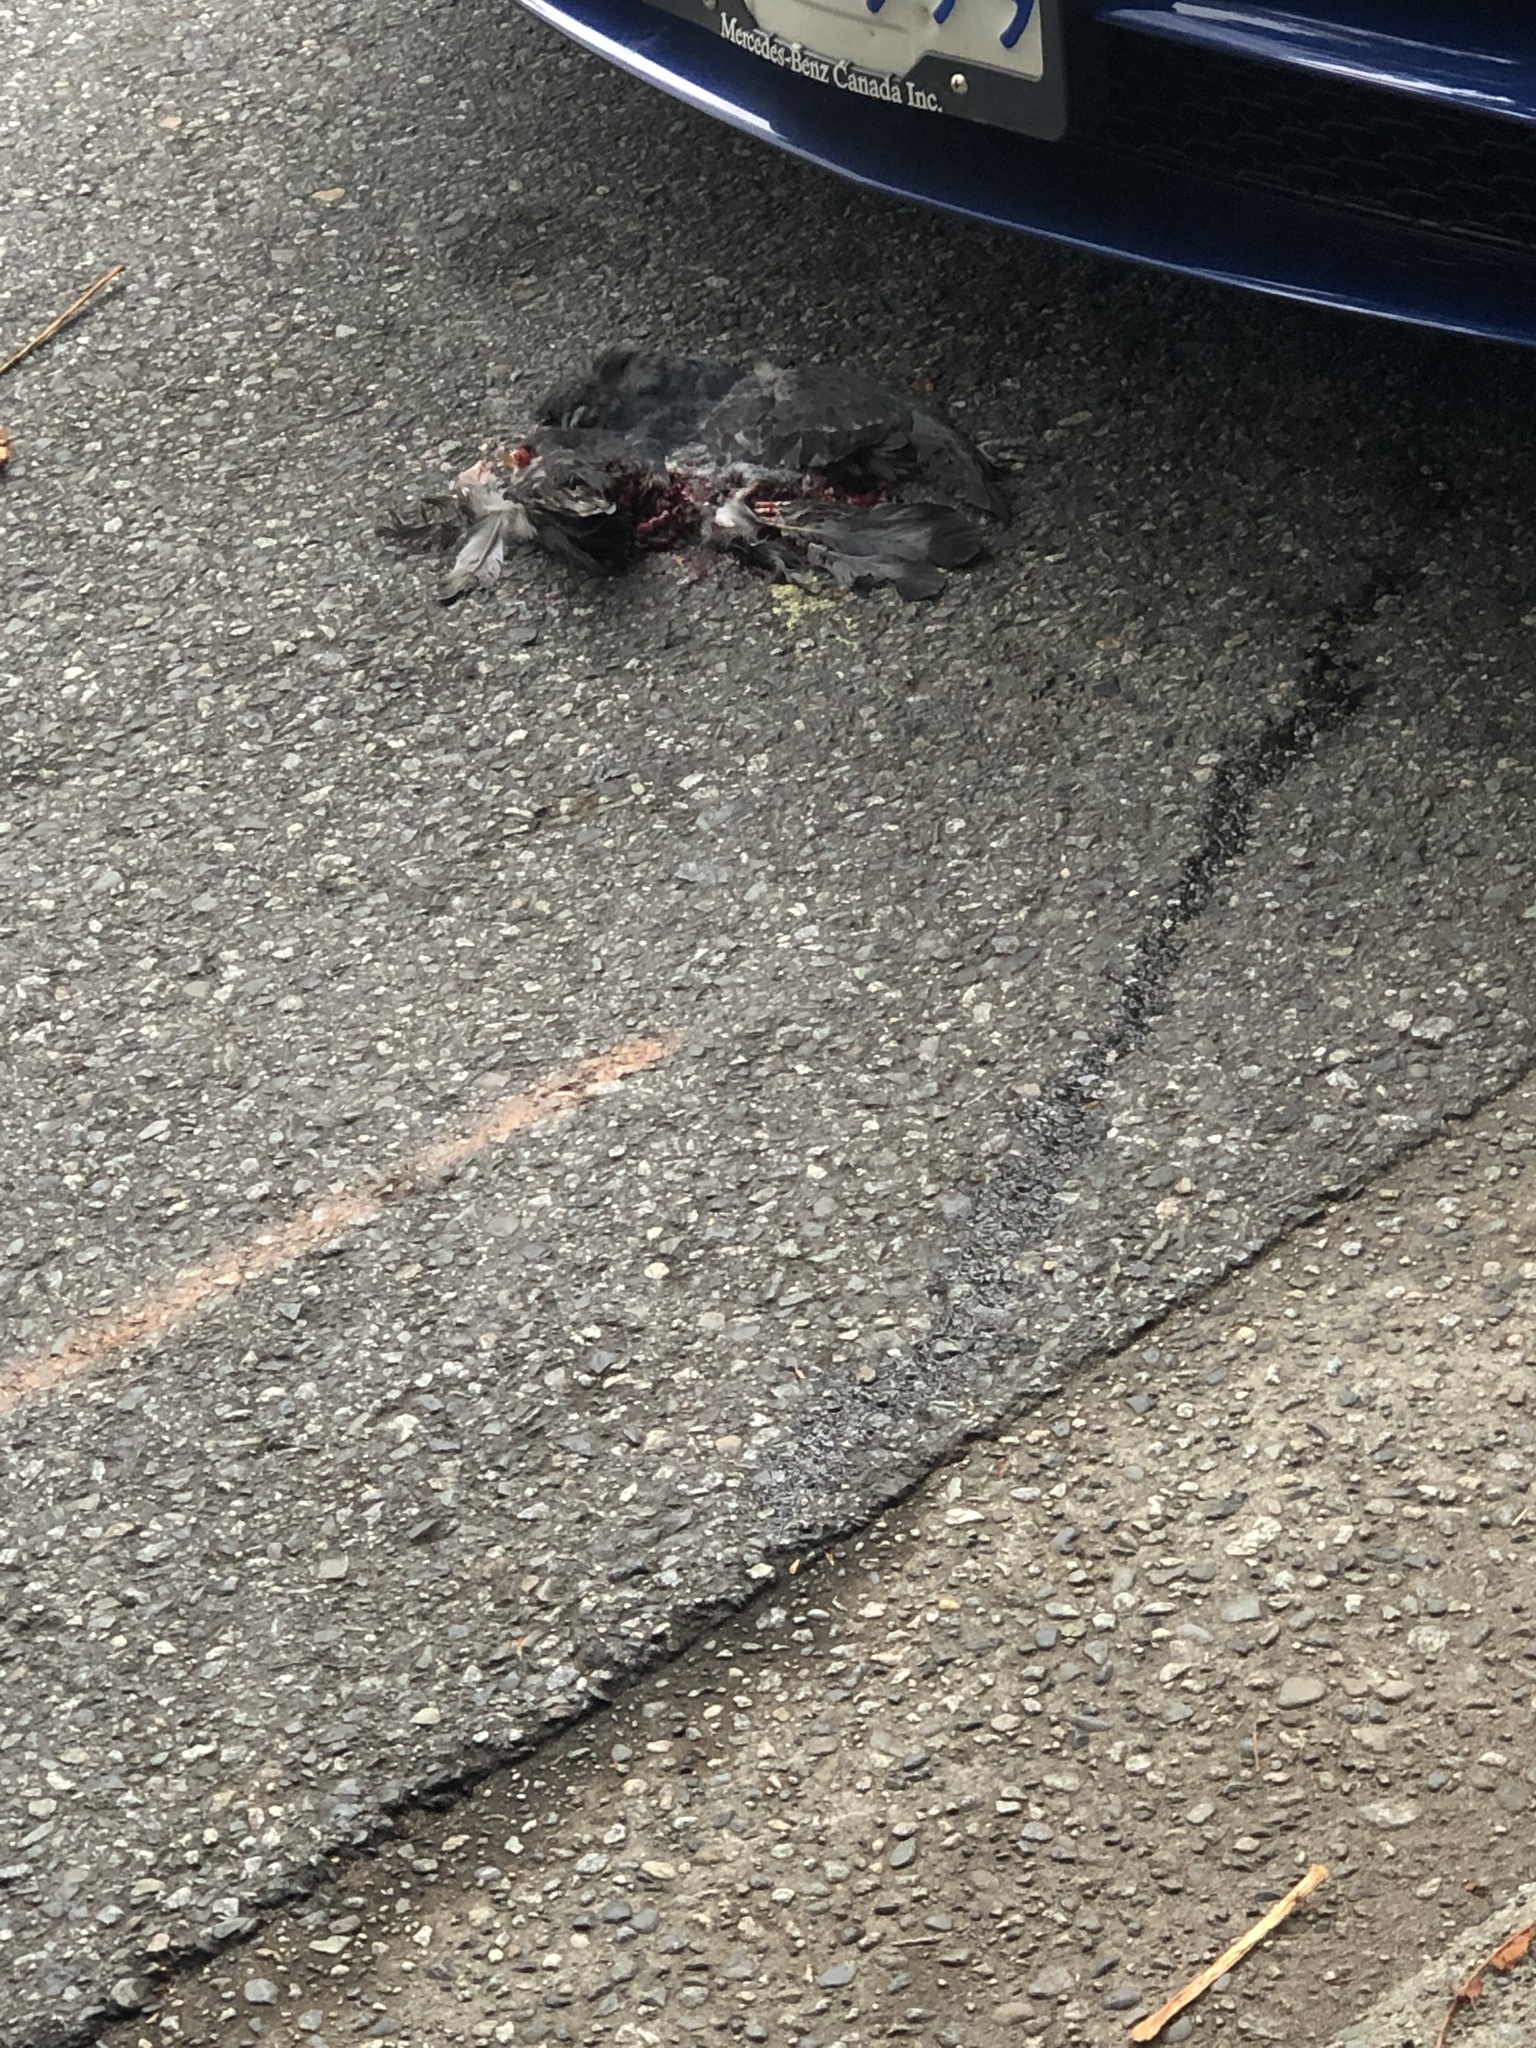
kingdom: Animalia
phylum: Chordata
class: Aves
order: Columbiformes
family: Columbidae
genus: Columba
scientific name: Columba livia
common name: Rock pigeon
